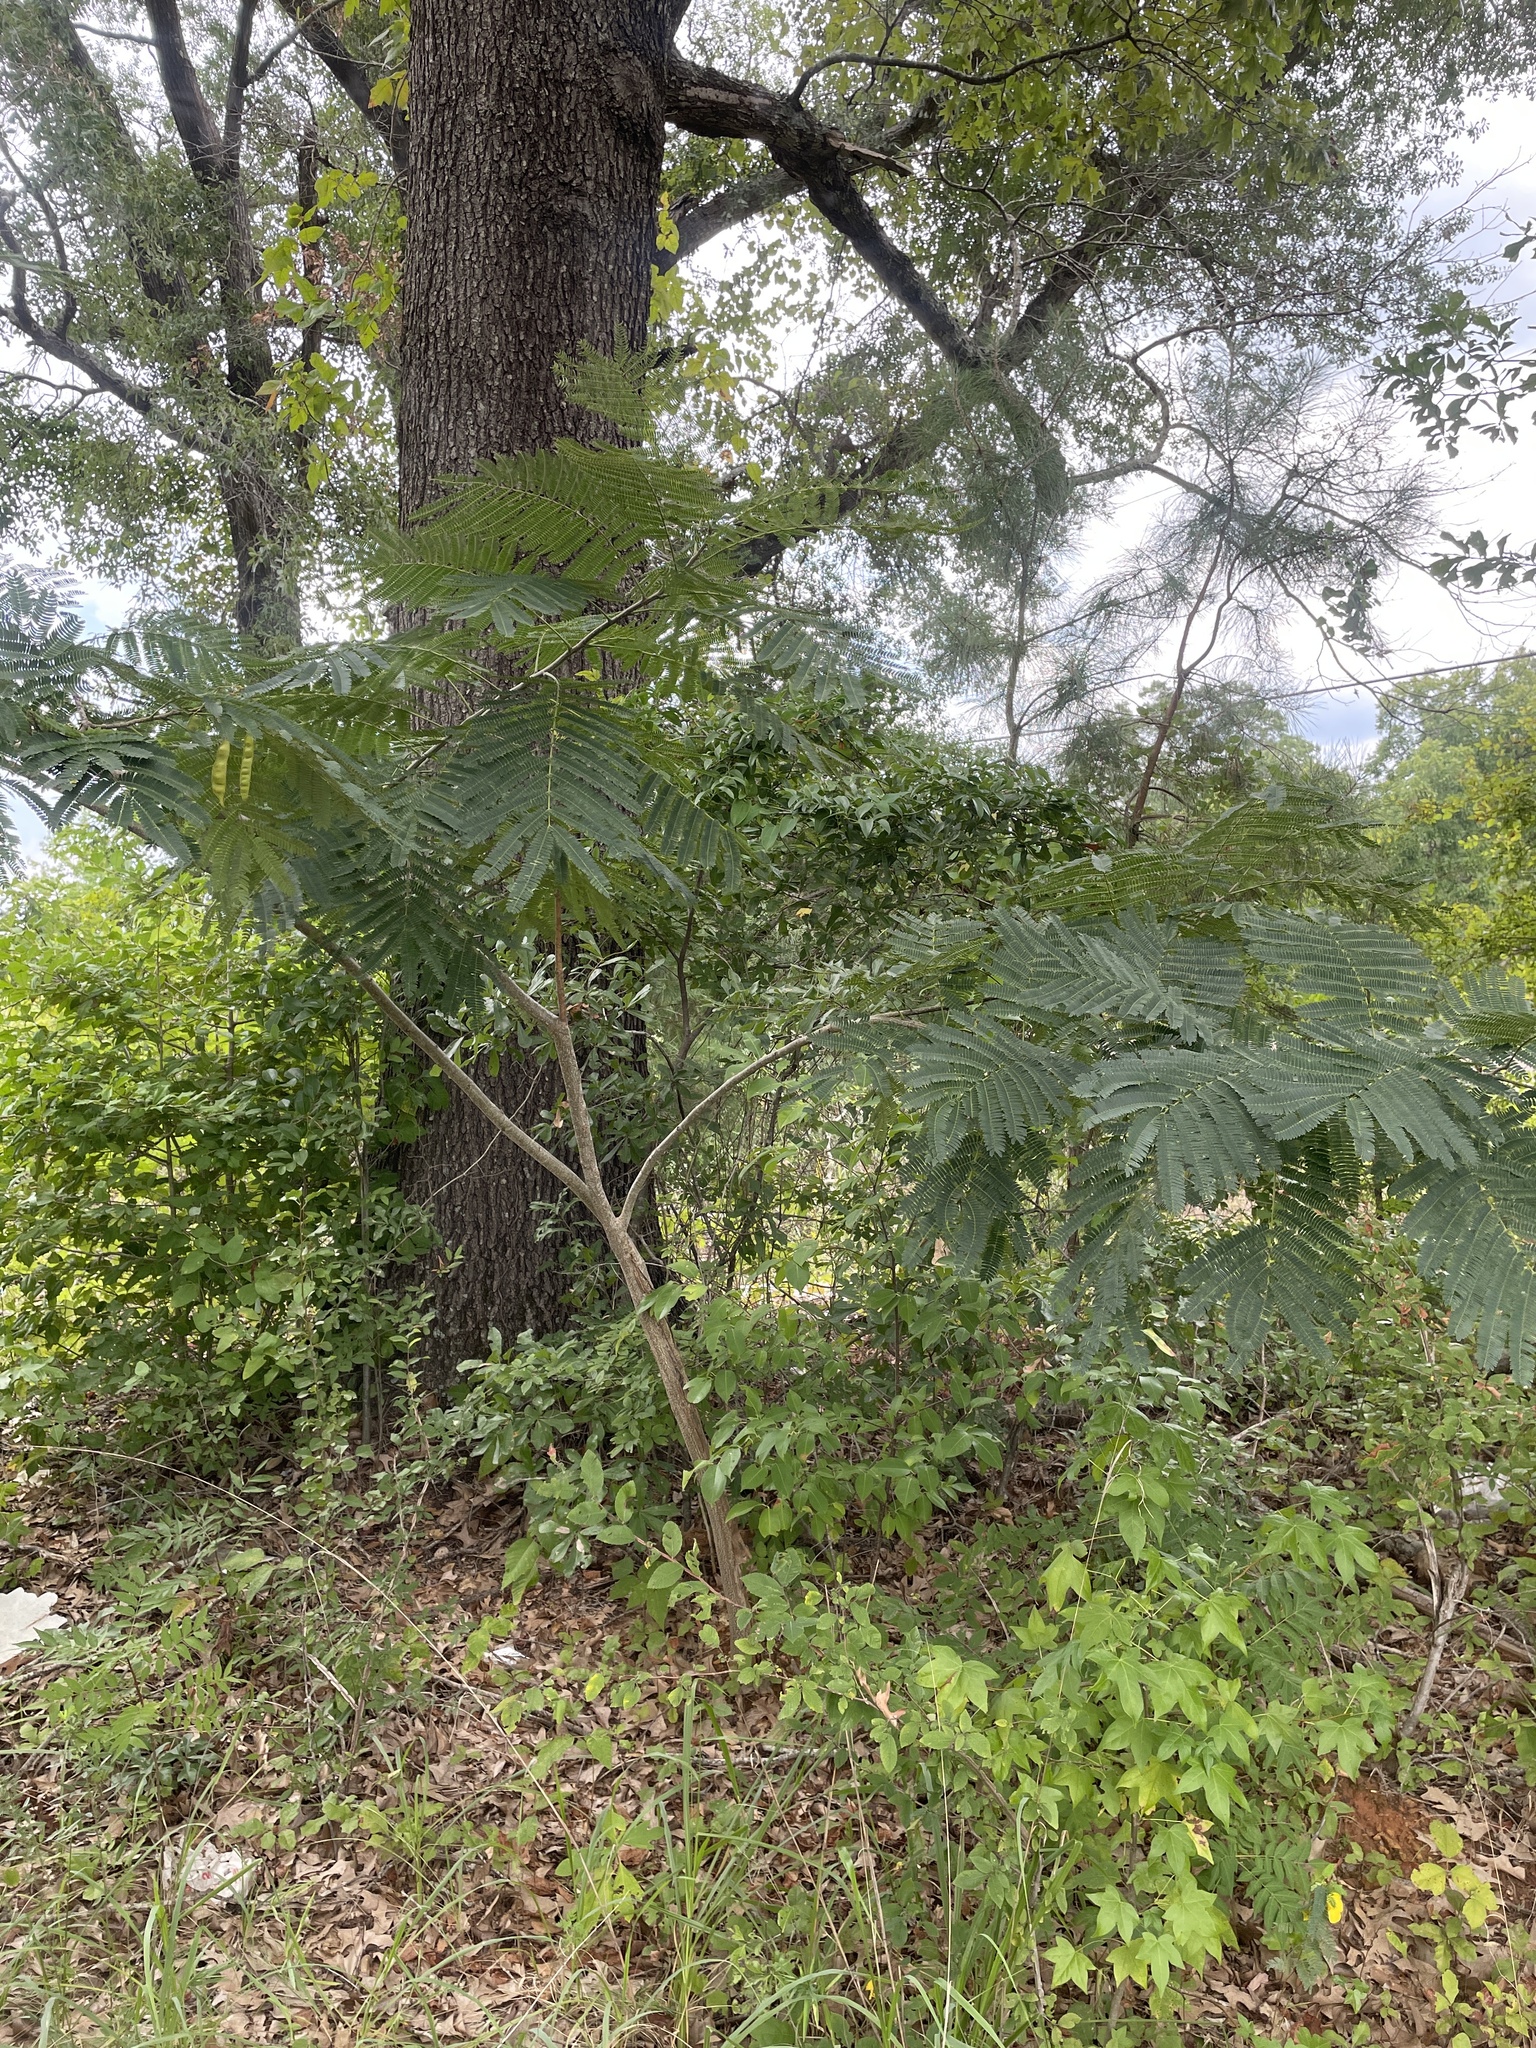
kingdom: Plantae
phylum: Tracheophyta
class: Magnoliopsida
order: Fabales
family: Fabaceae
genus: Albizia
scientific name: Albizia julibrissin
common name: Silktree
